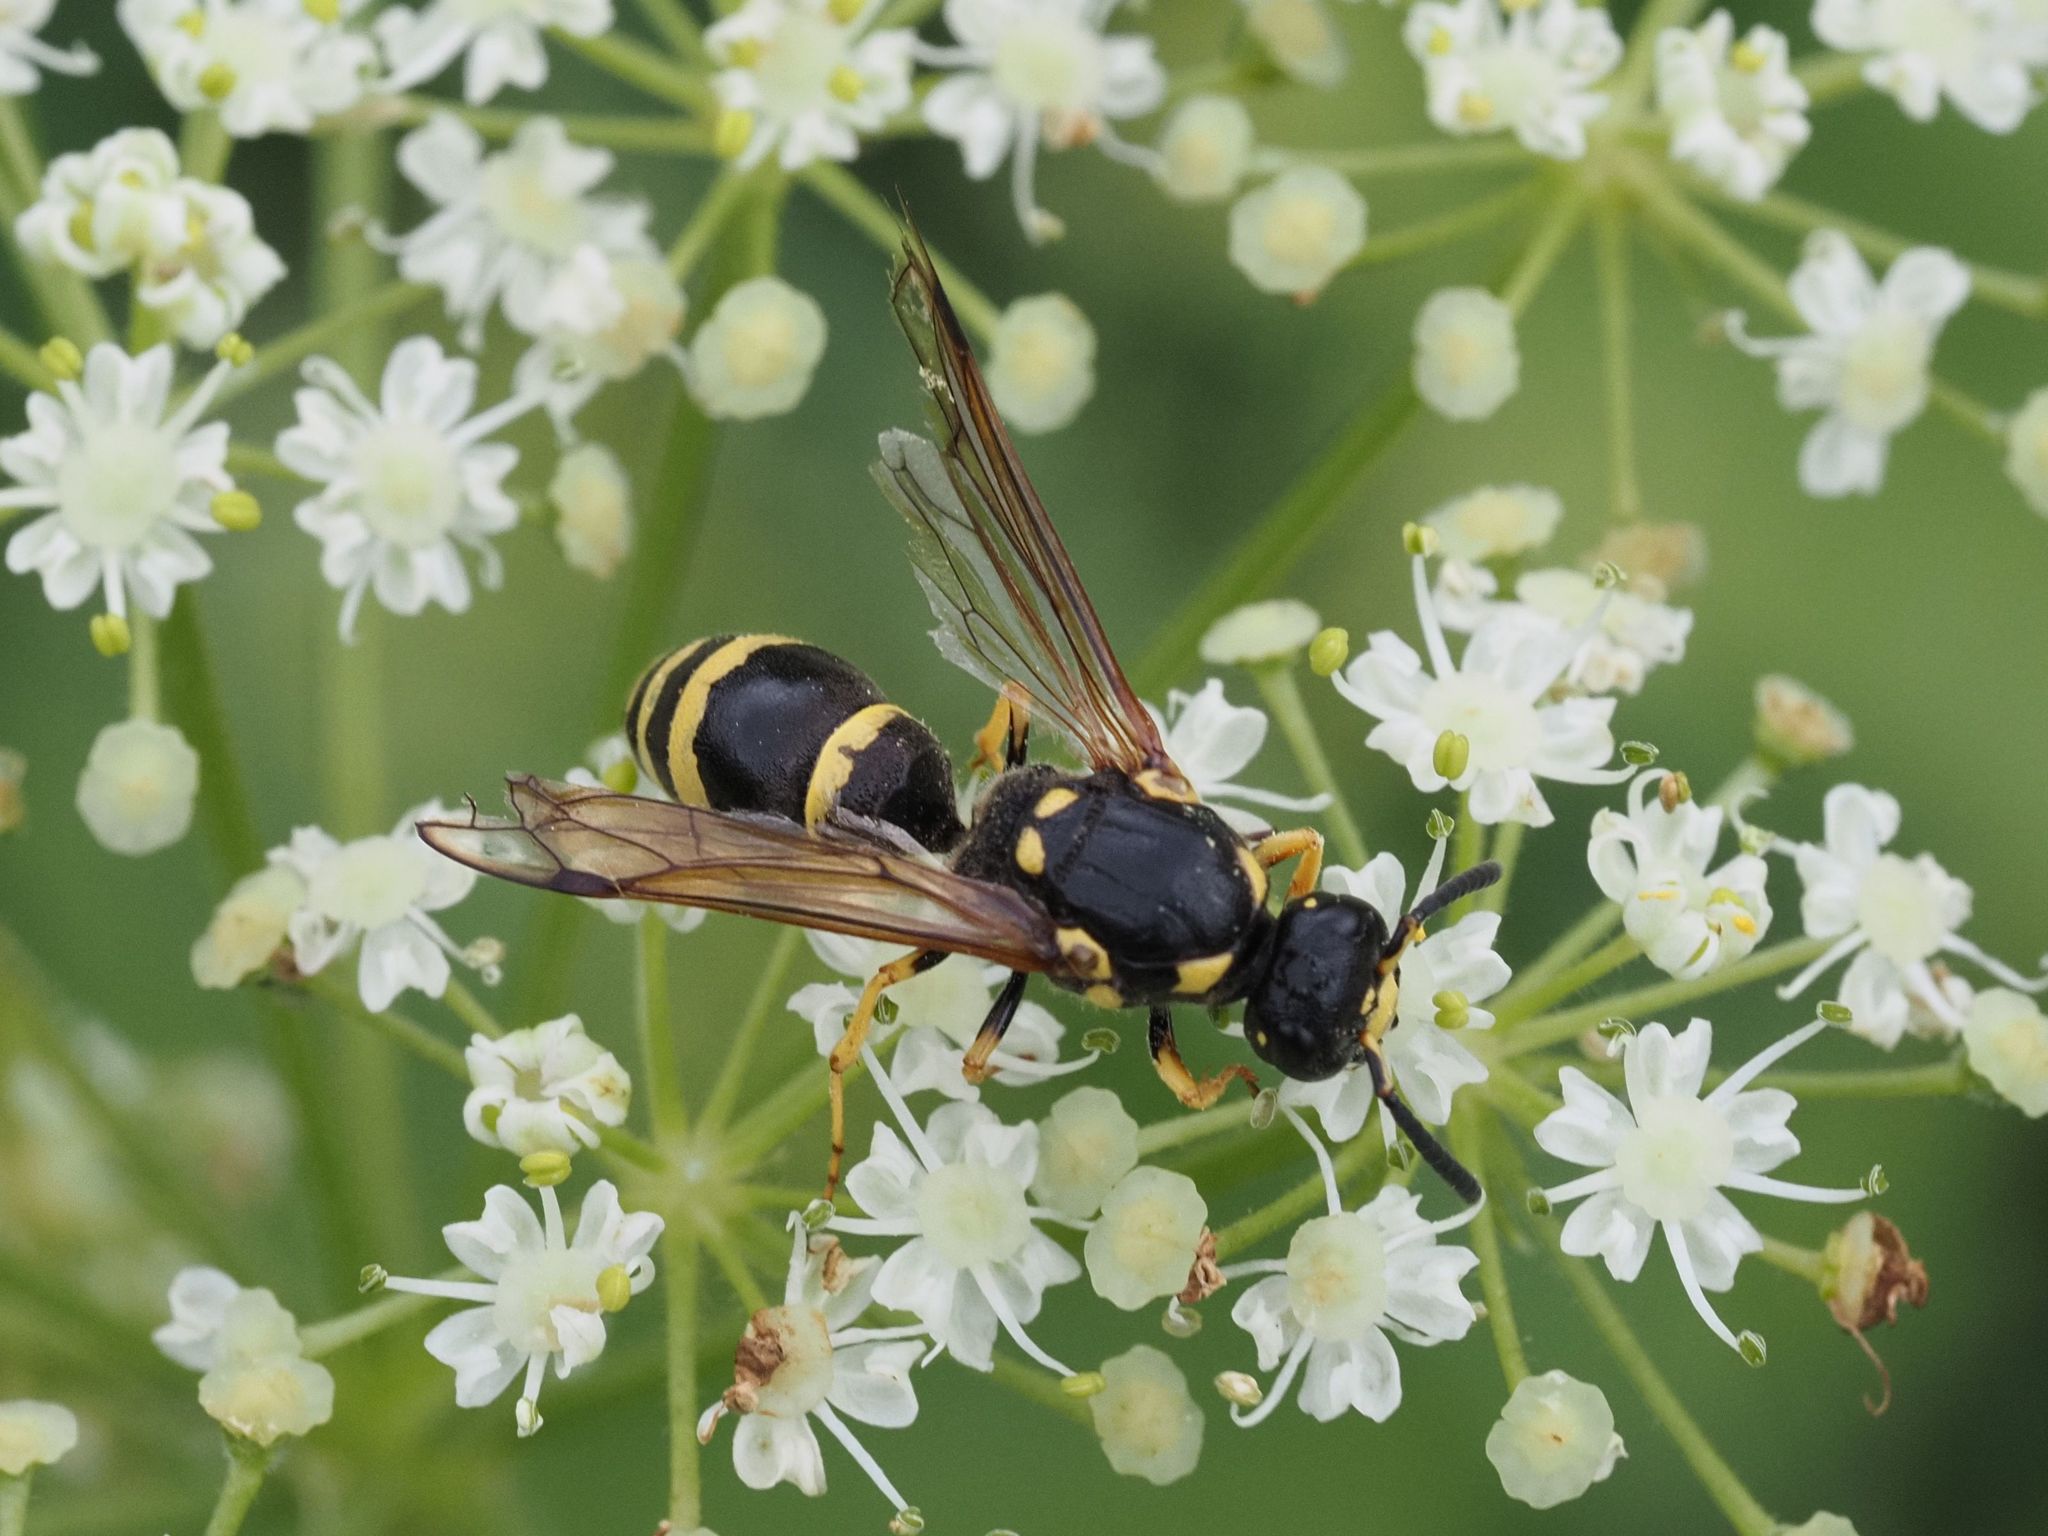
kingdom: Animalia
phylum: Arthropoda
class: Insecta
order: Hymenoptera
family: Eumenidae
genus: Symmorphus
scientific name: Symmorphus crassicornis
